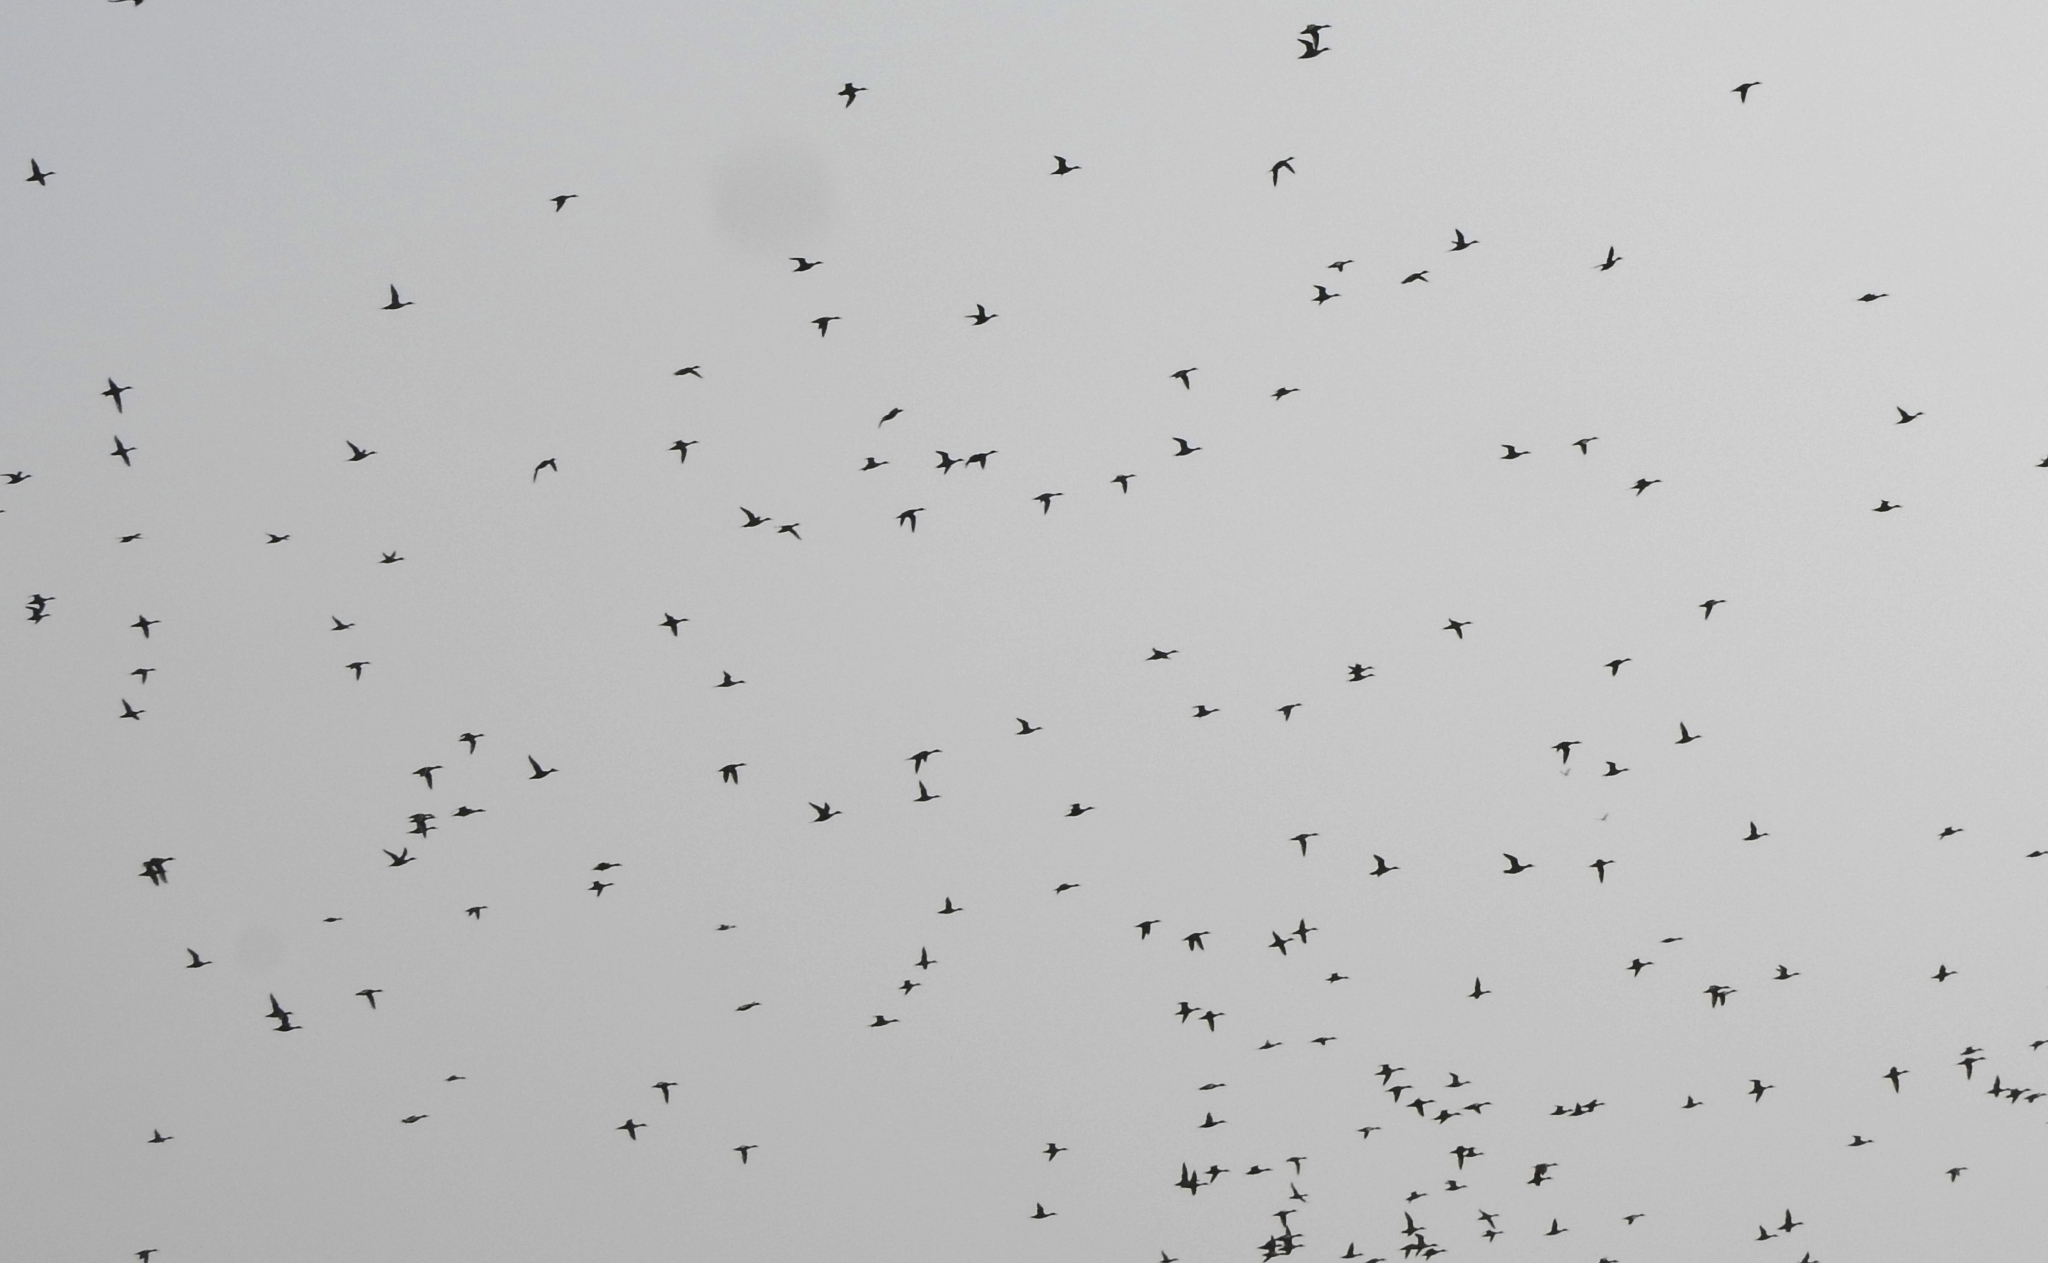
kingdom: Animalia
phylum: Chordata
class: Aves
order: Anseriformes
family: Anatidae
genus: Anas
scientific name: Anas acuta
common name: Northern pintail
